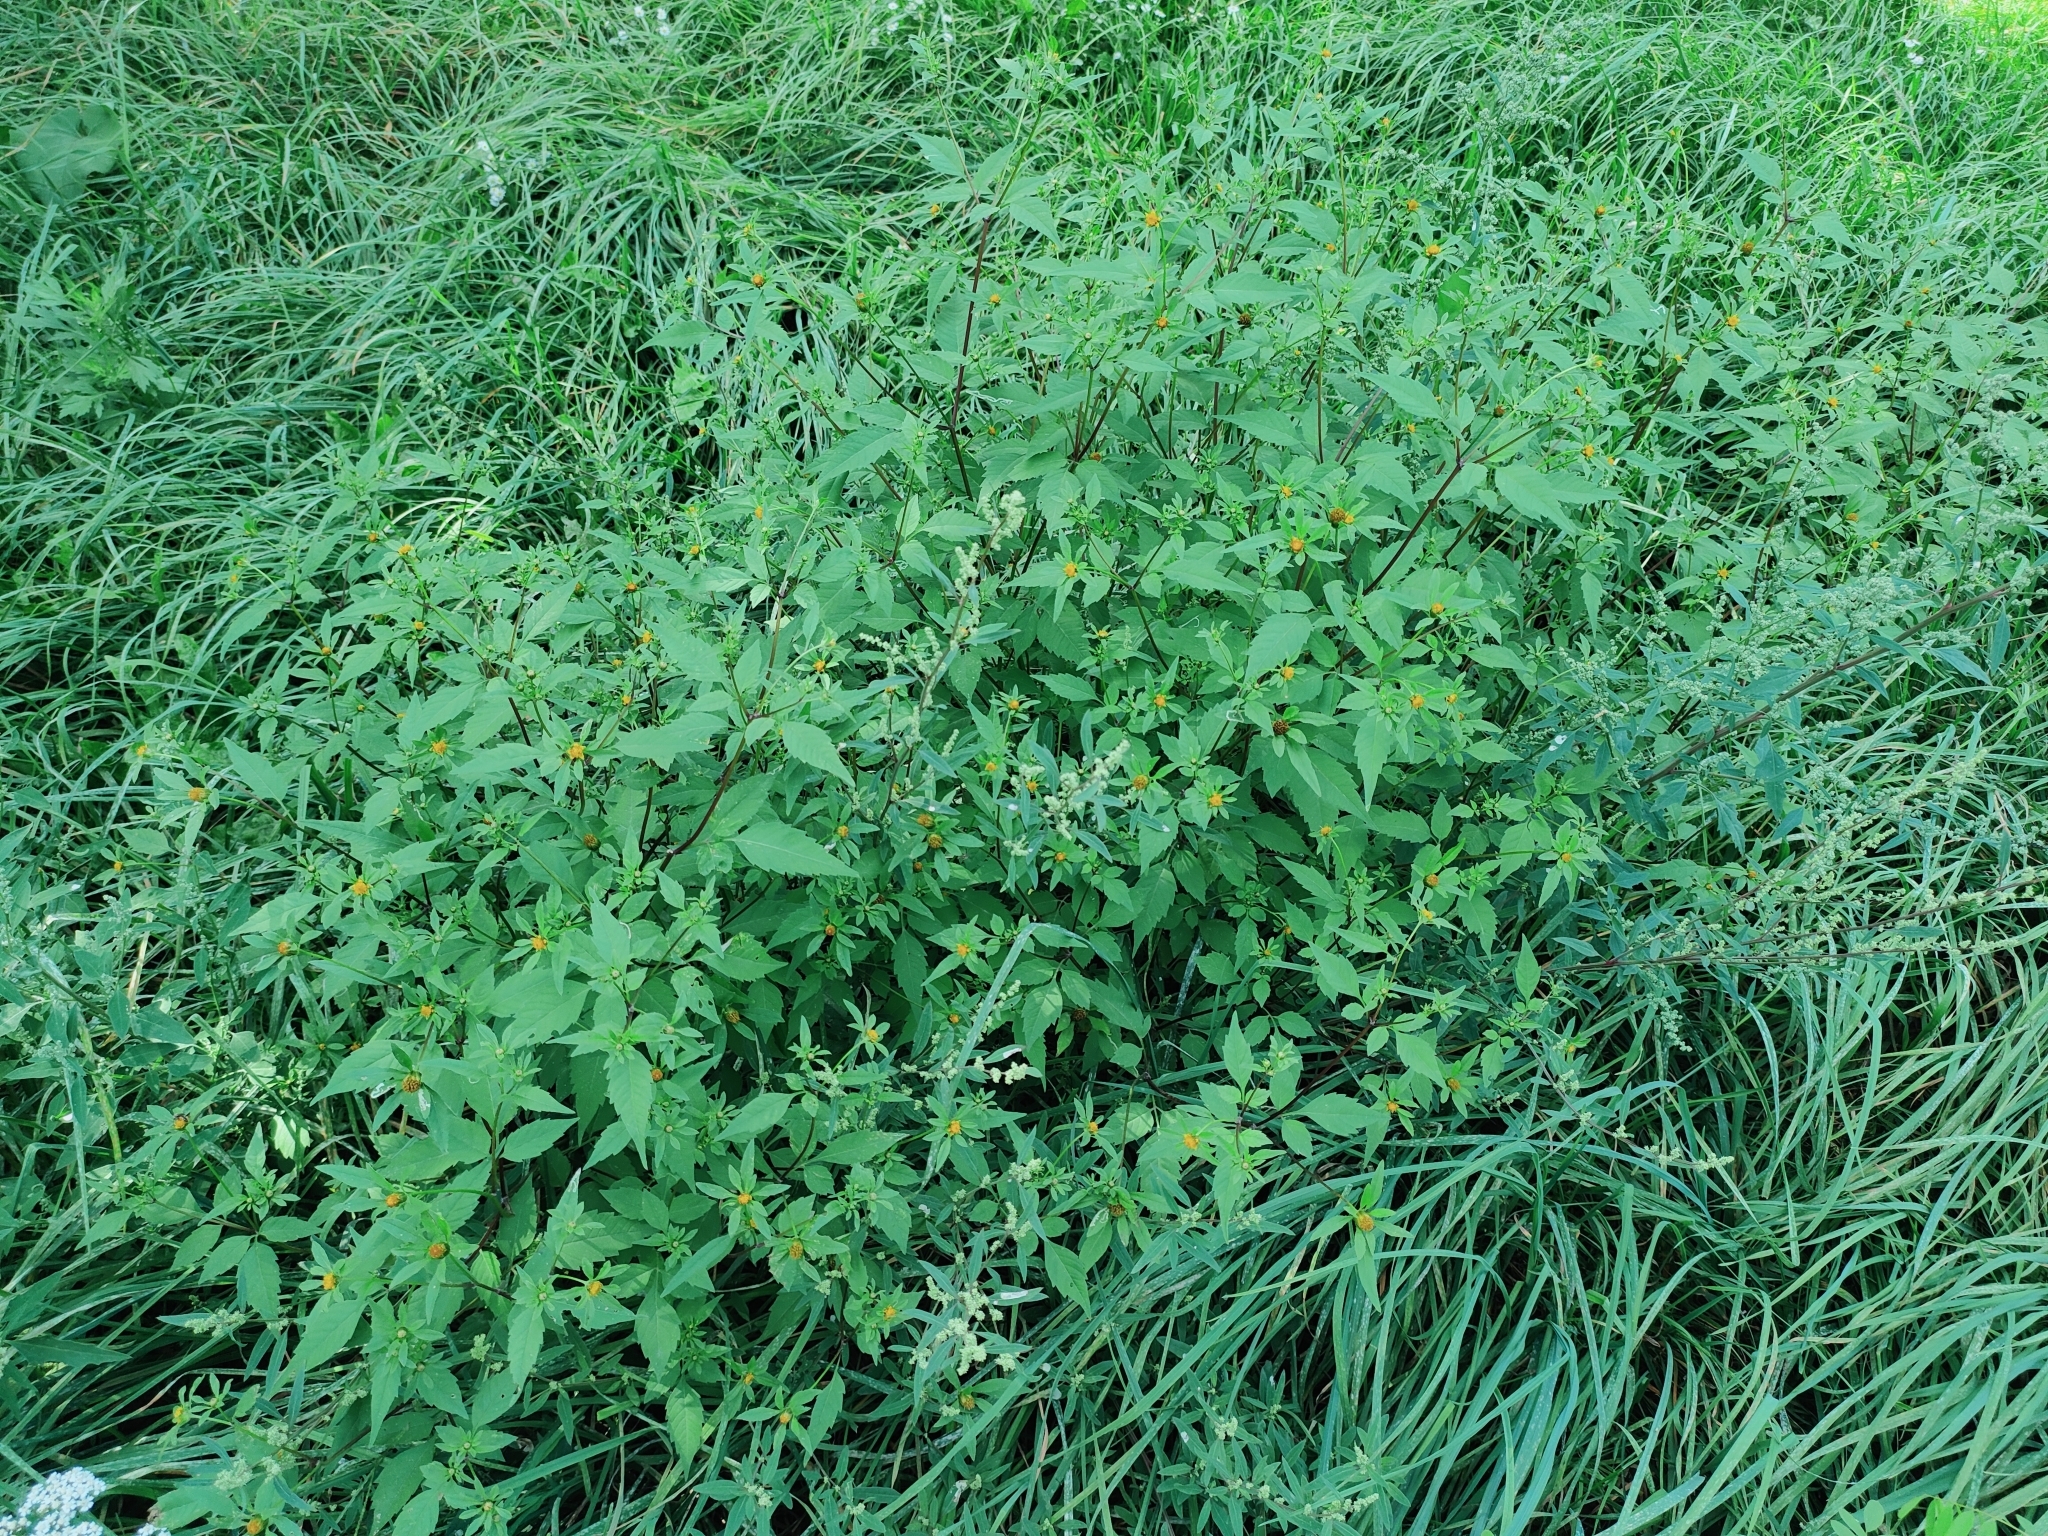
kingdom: Plantae
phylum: Tracheophyta
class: Magnoliopsida
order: Asterales
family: Asteraceae
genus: Bidens
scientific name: Bidens frondosa
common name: Beggarticks
